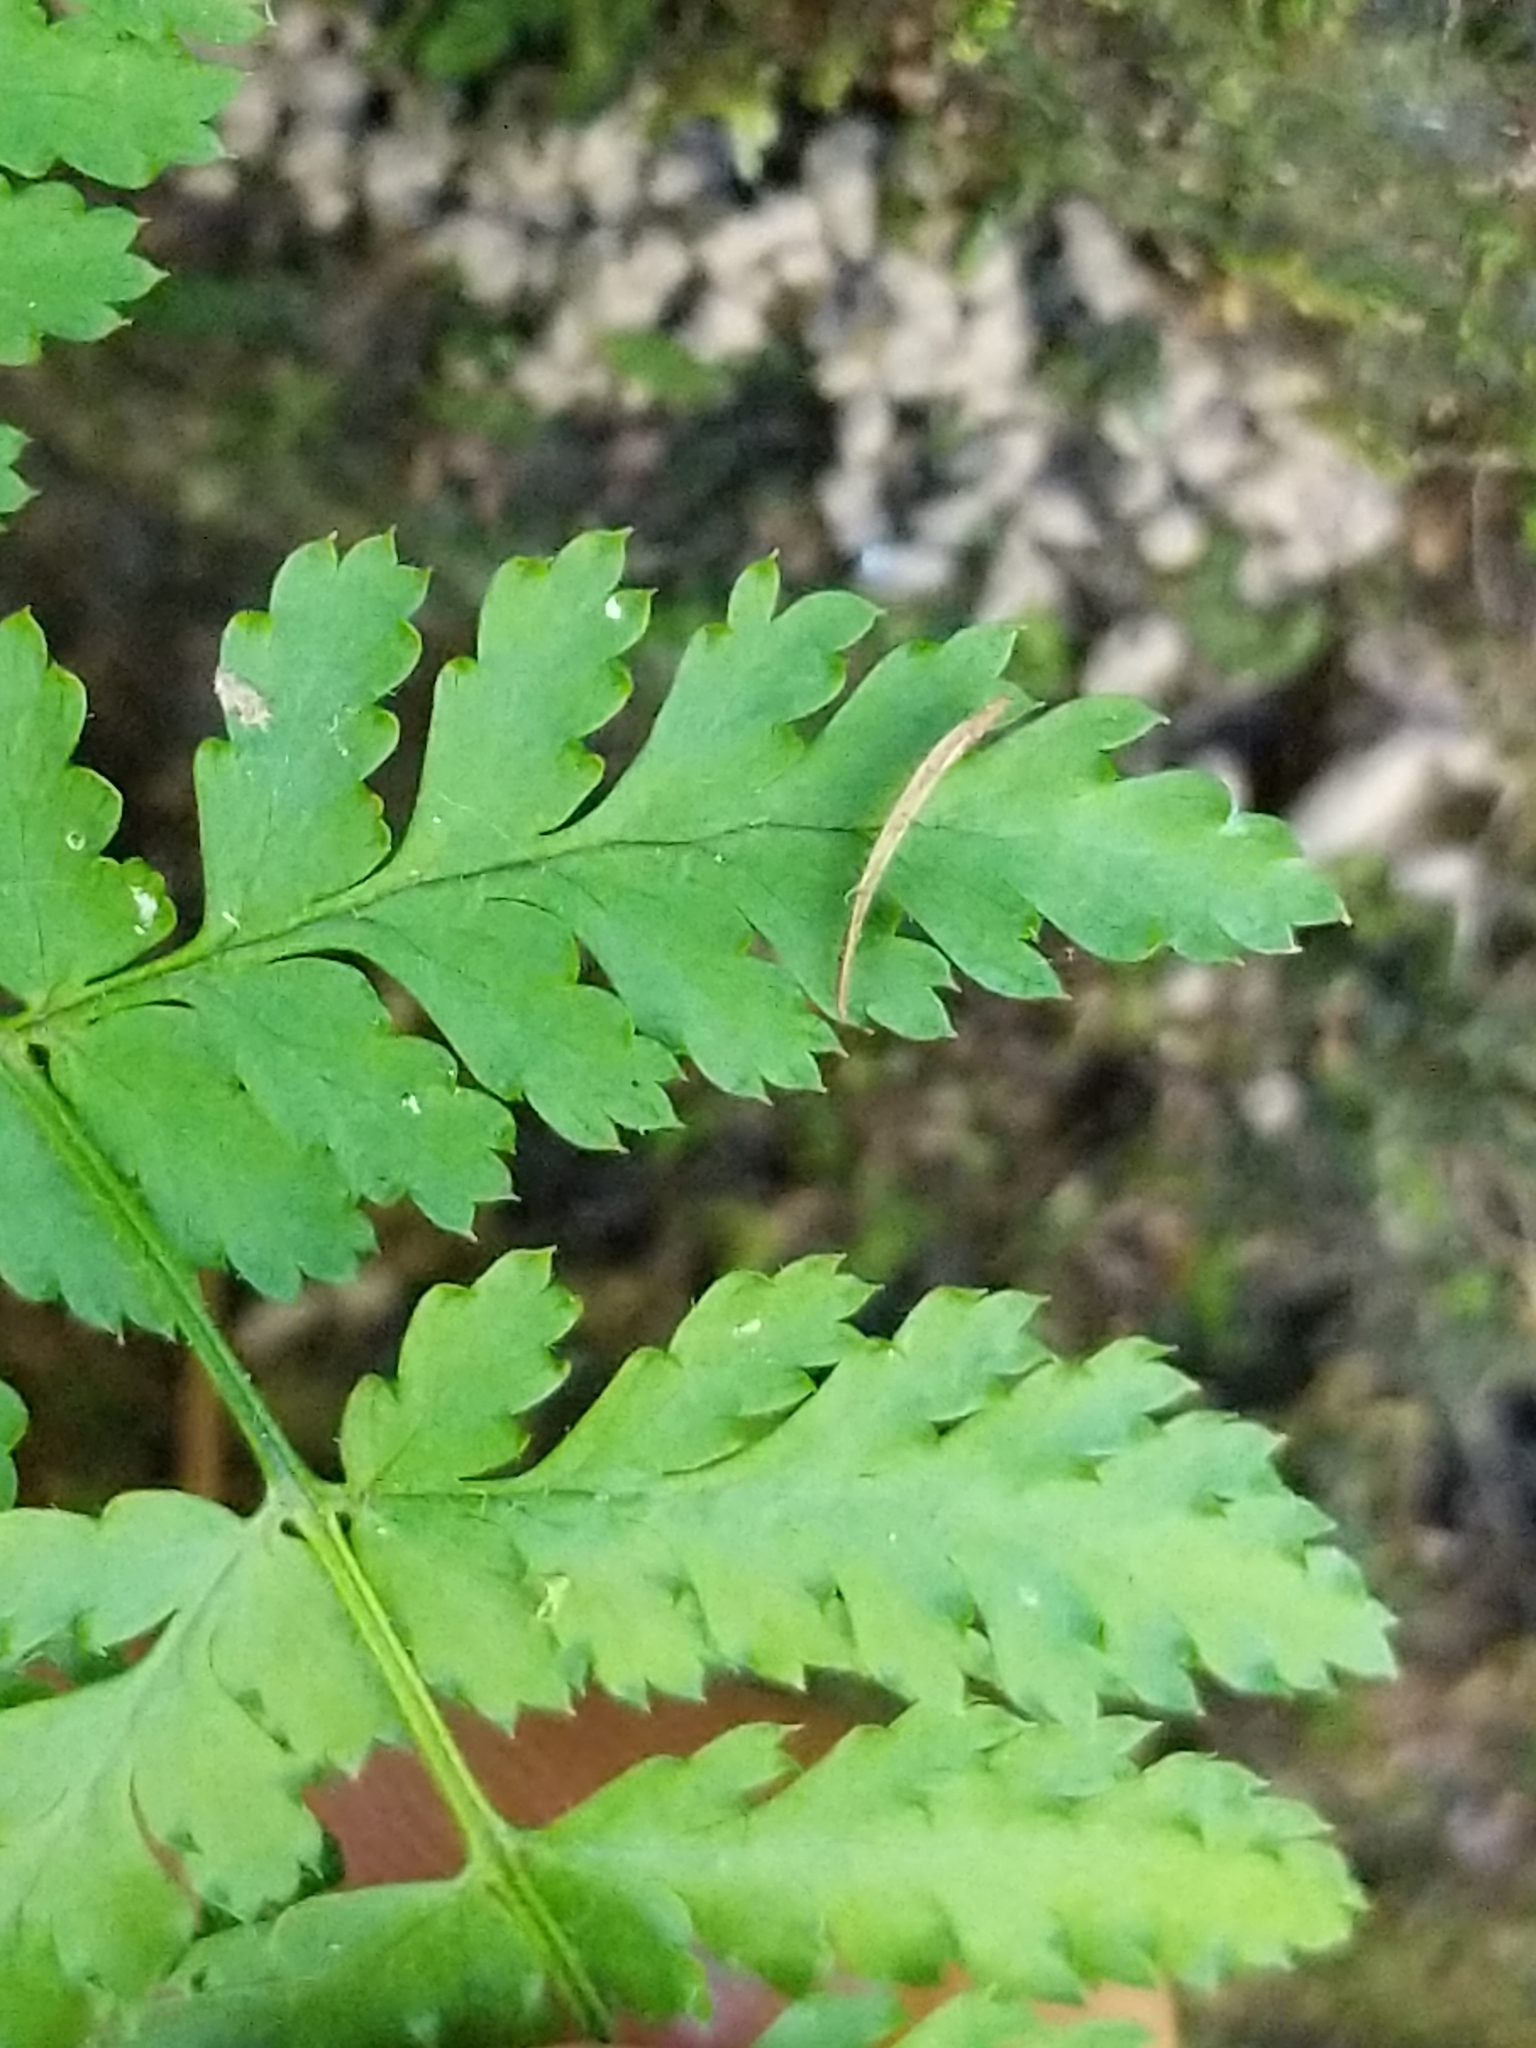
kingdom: Plantae
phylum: Tracheophyta
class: Polypodiopsida
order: Polypodiales
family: Dryopteridaceae
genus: Dryopteris
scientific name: Dryopteris intermedia
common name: Evergreen wood fern
